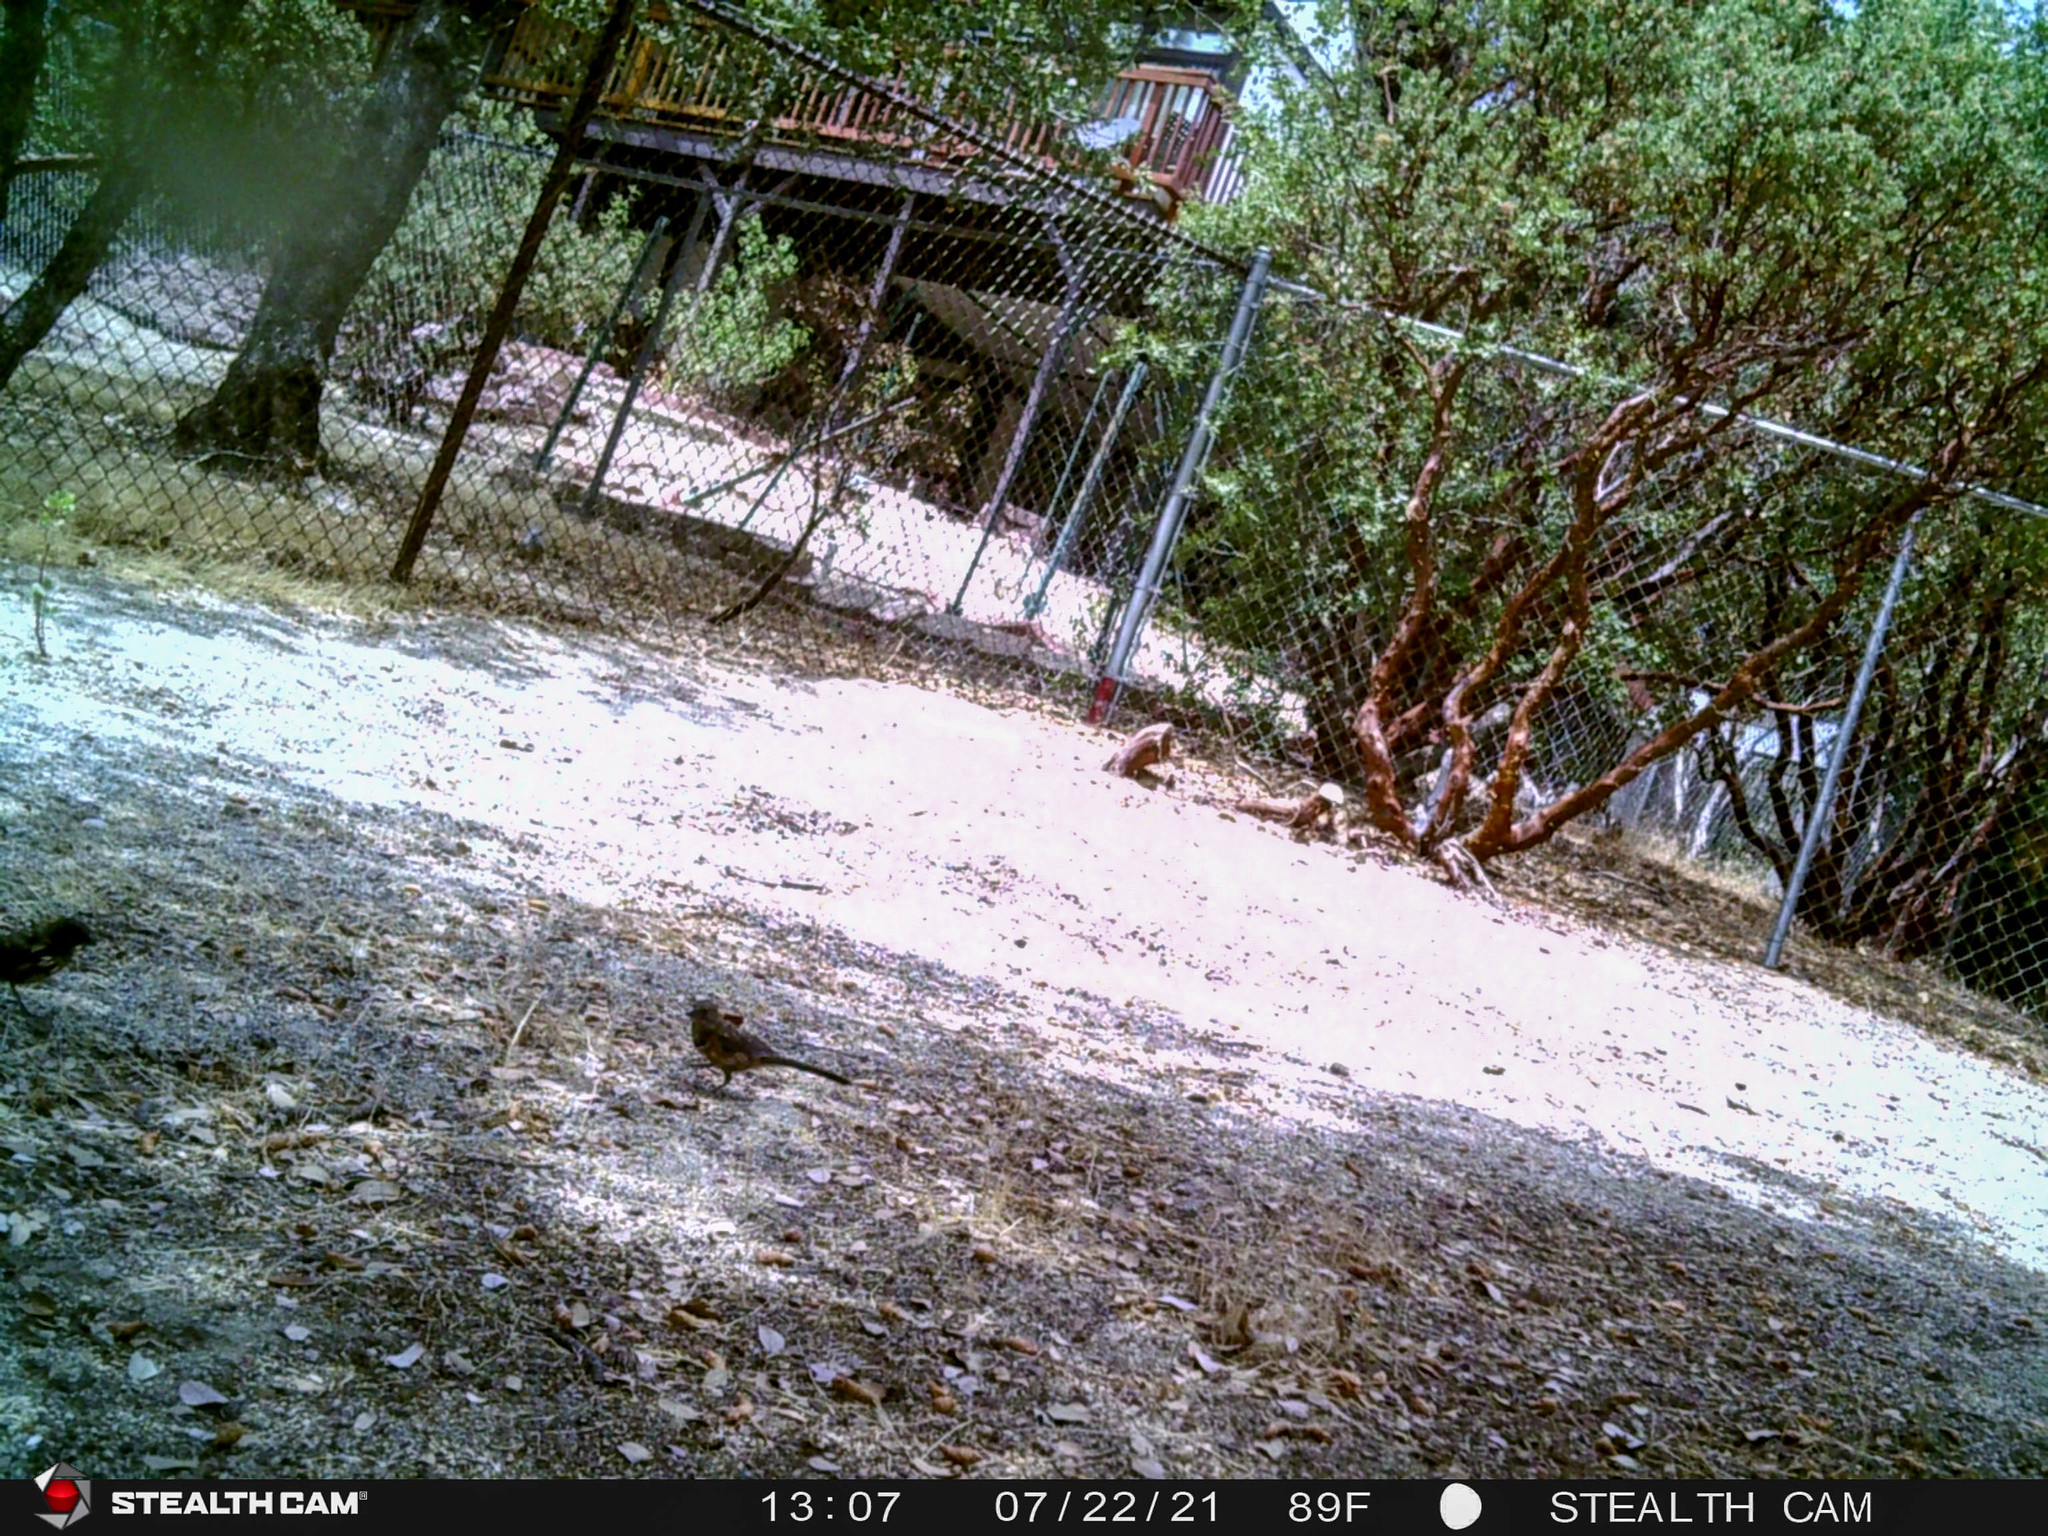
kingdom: Animalia
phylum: Chordata
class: Aves
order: Passeriformes
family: Passerellidae
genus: Pipilo
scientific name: Pipilo maculatus
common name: Spotted towhee
